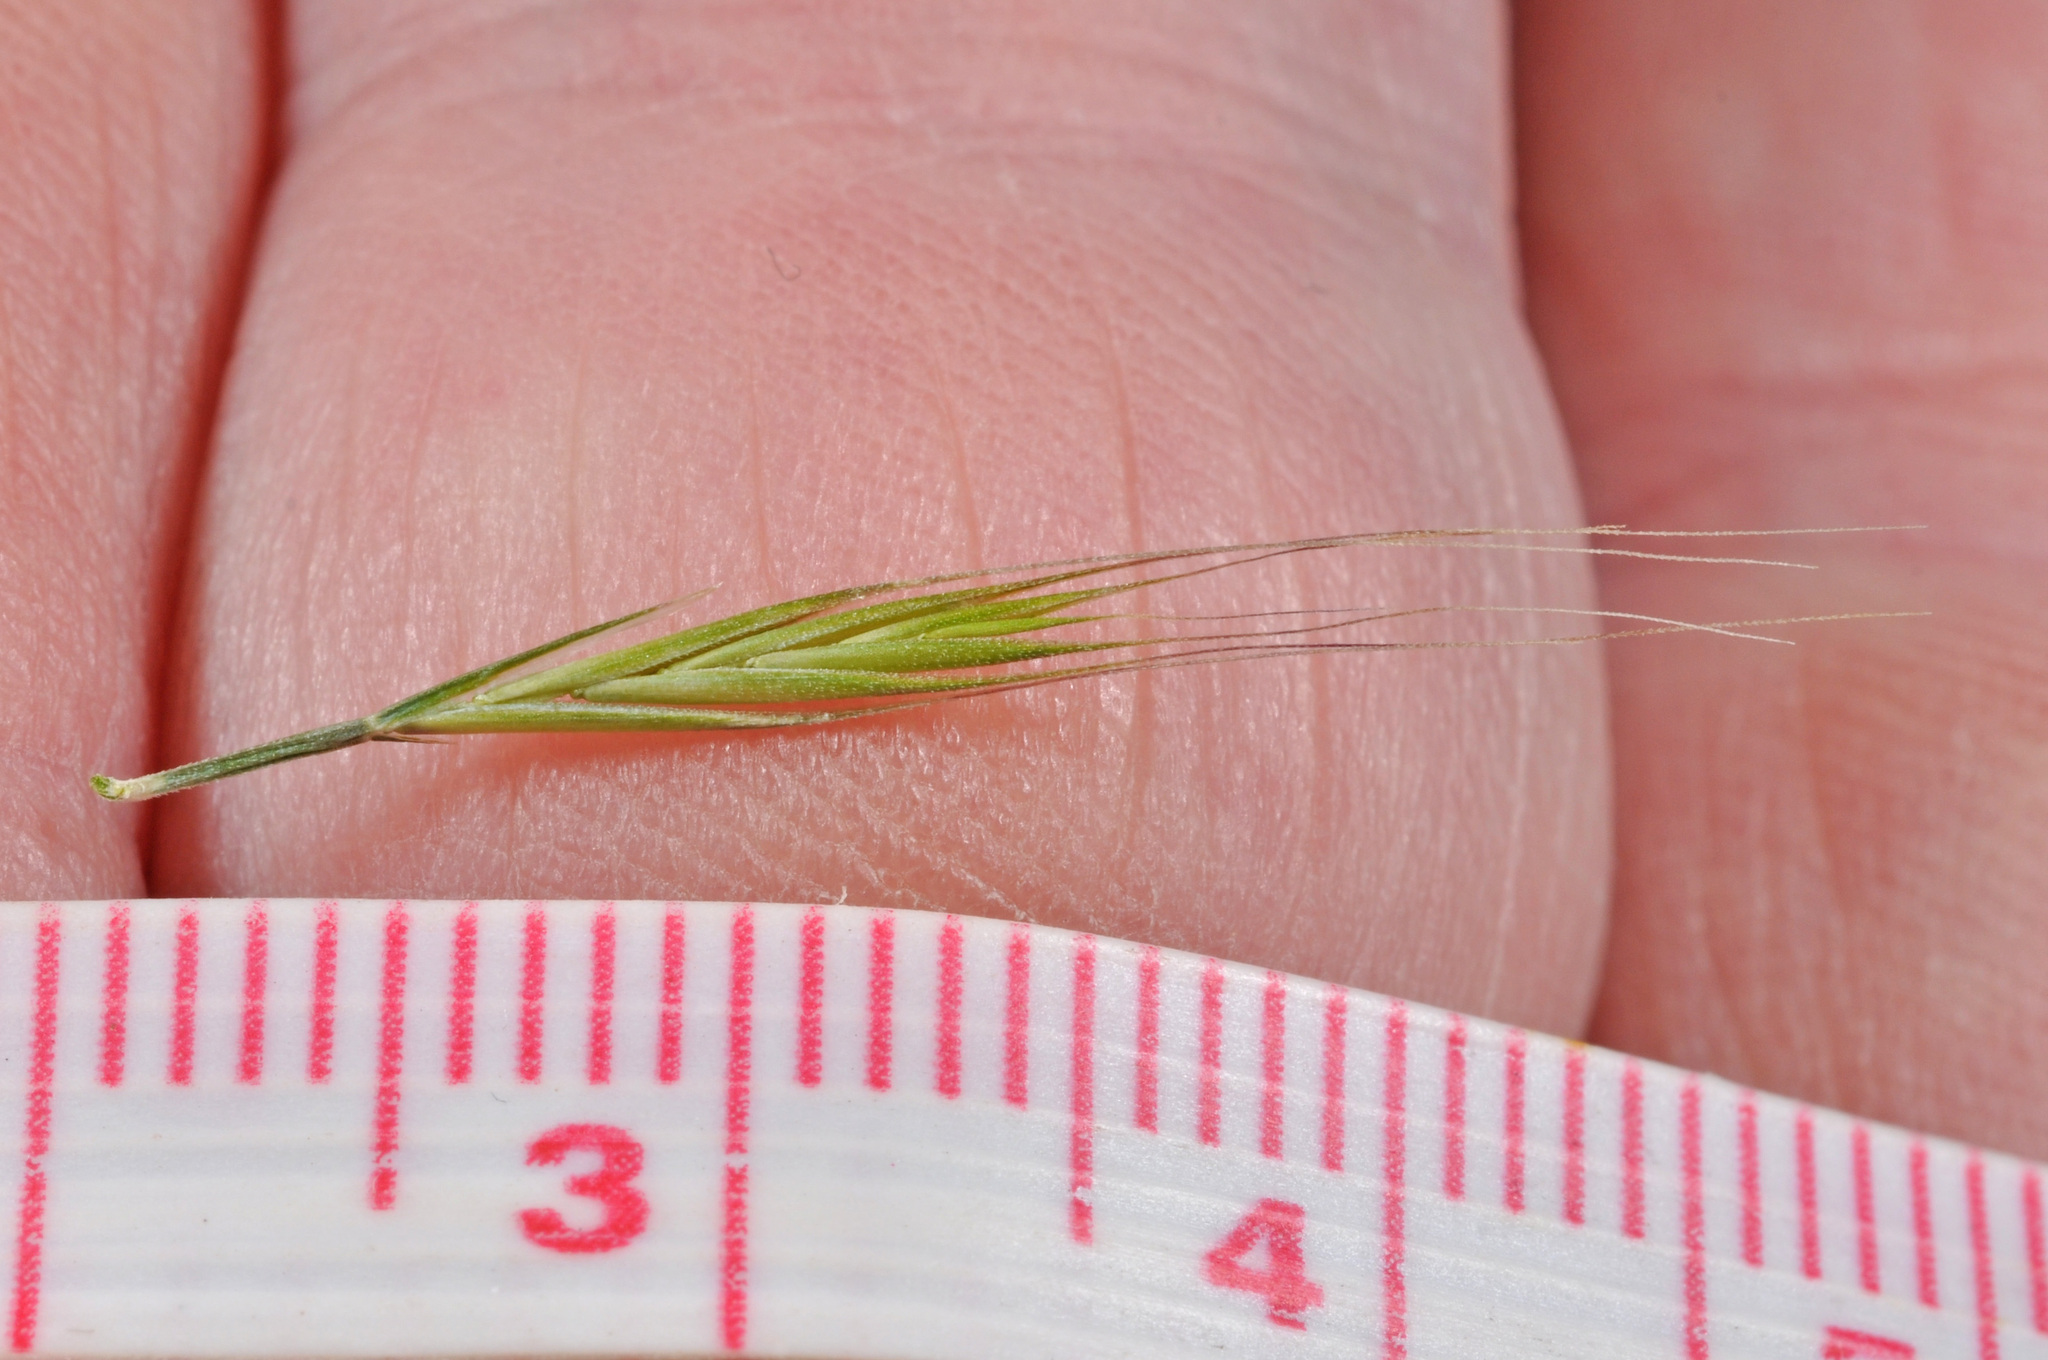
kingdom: Plantae
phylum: Tracheophyta
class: Liliopsida
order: Poales
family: Poaceae
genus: Festuca
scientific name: Festuca myuros
